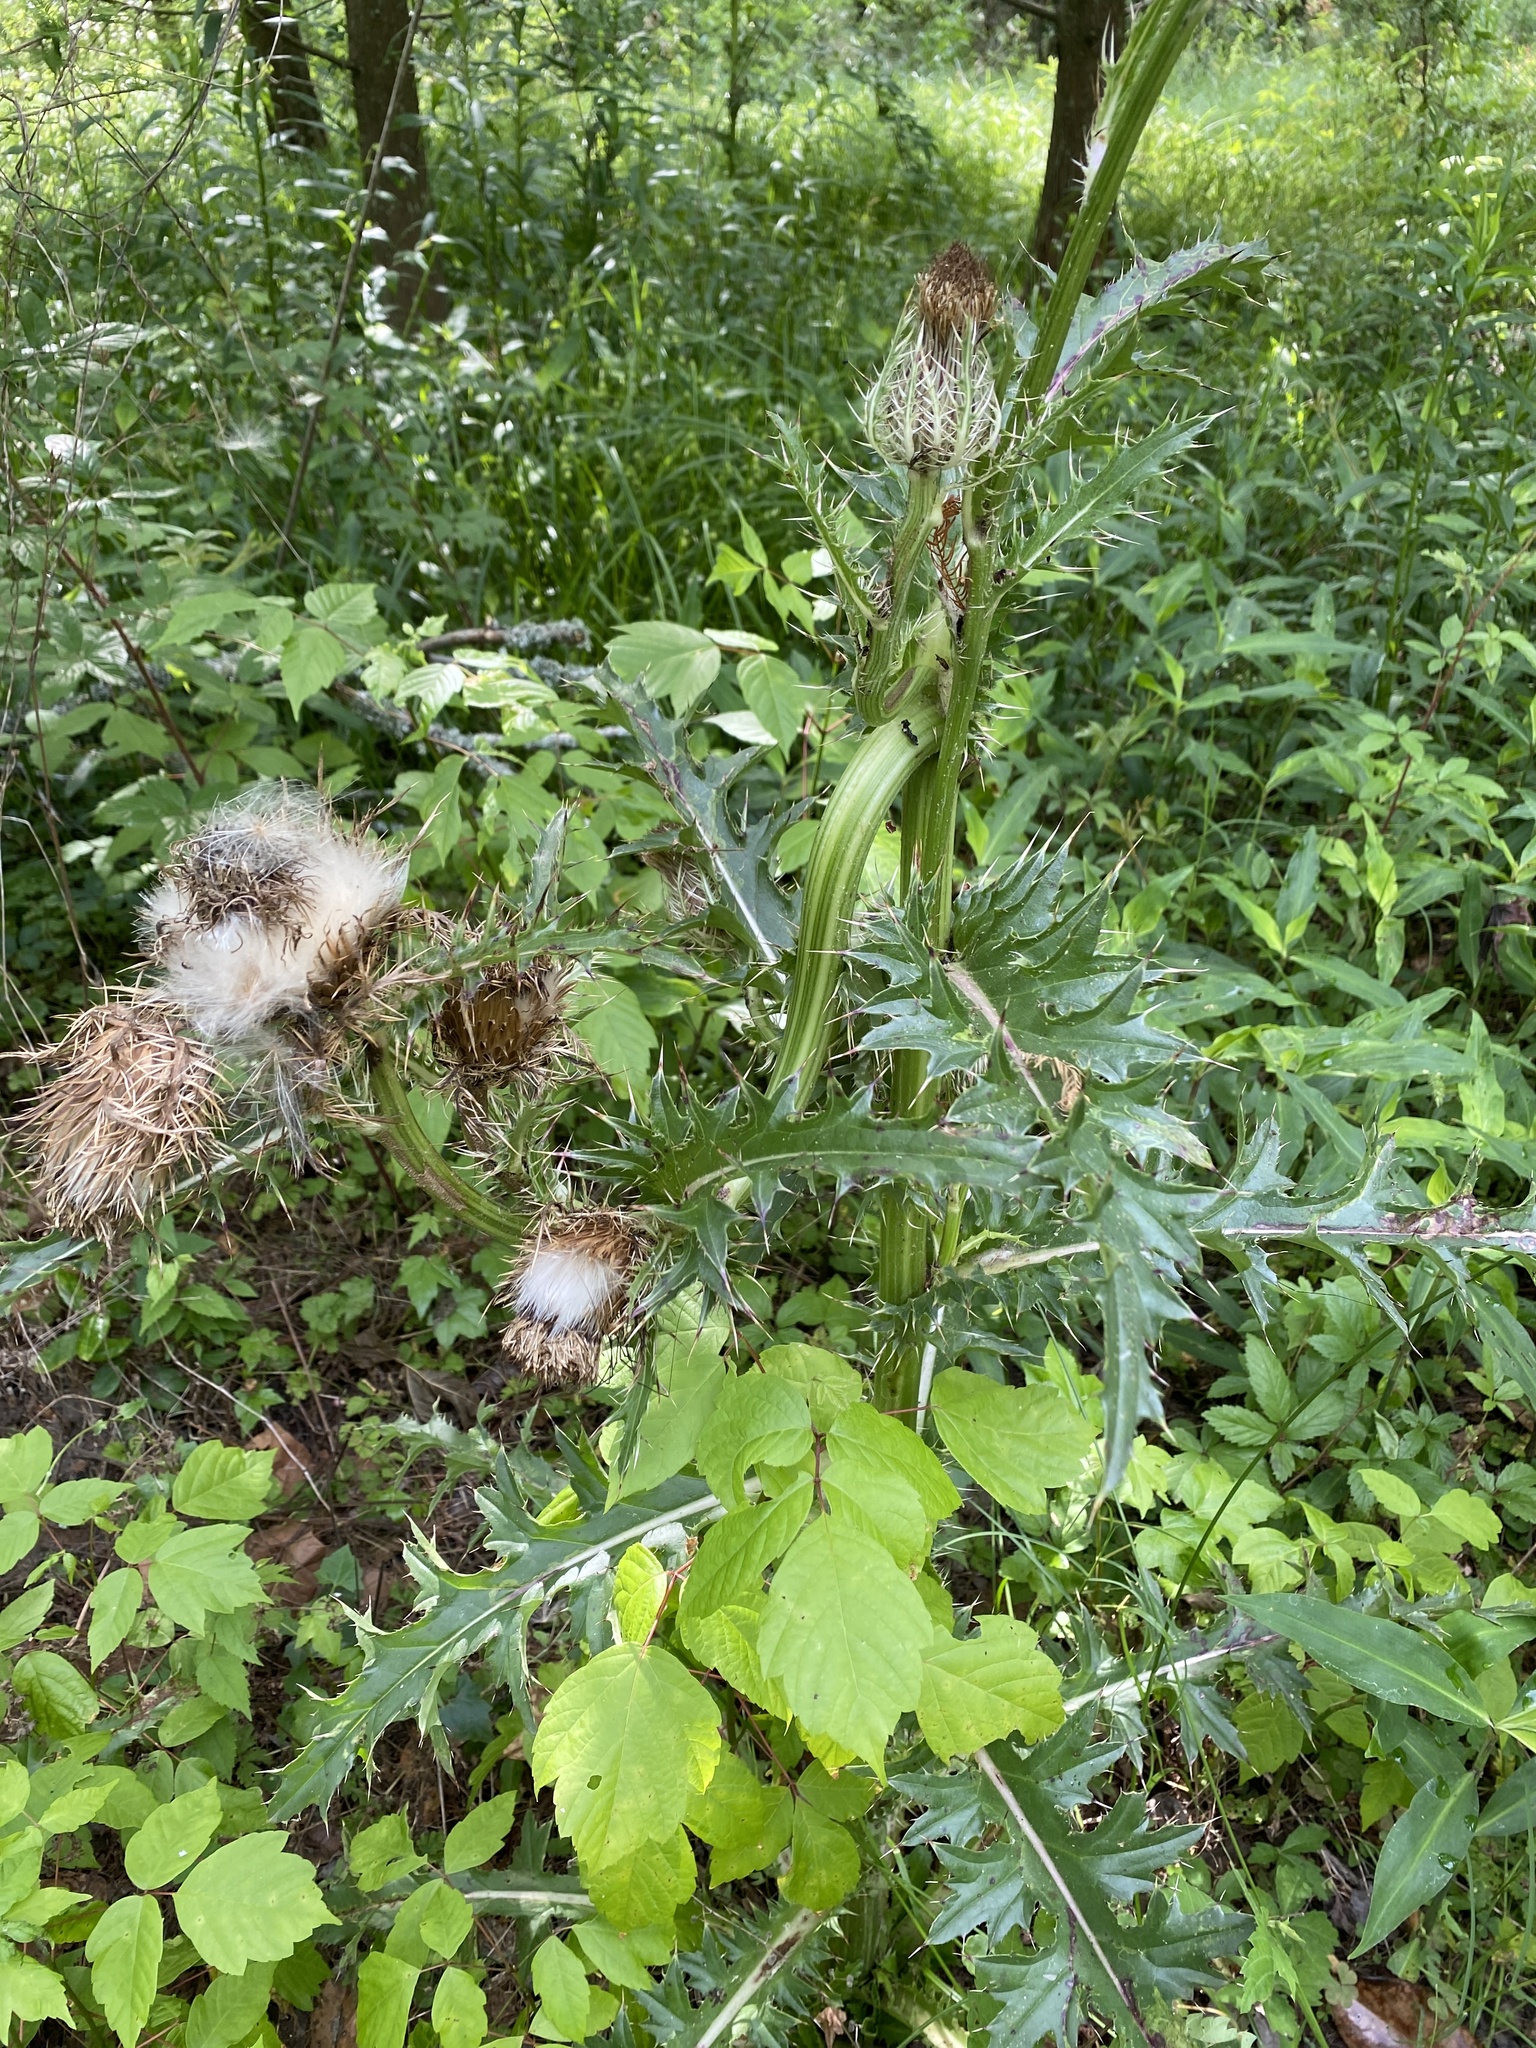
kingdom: Plantae
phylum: Tracheophyta
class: Magnoliopsida
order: Asterales
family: Asteraceae
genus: Cirsium
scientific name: Cirsium horridulum
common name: Bristly thistle
